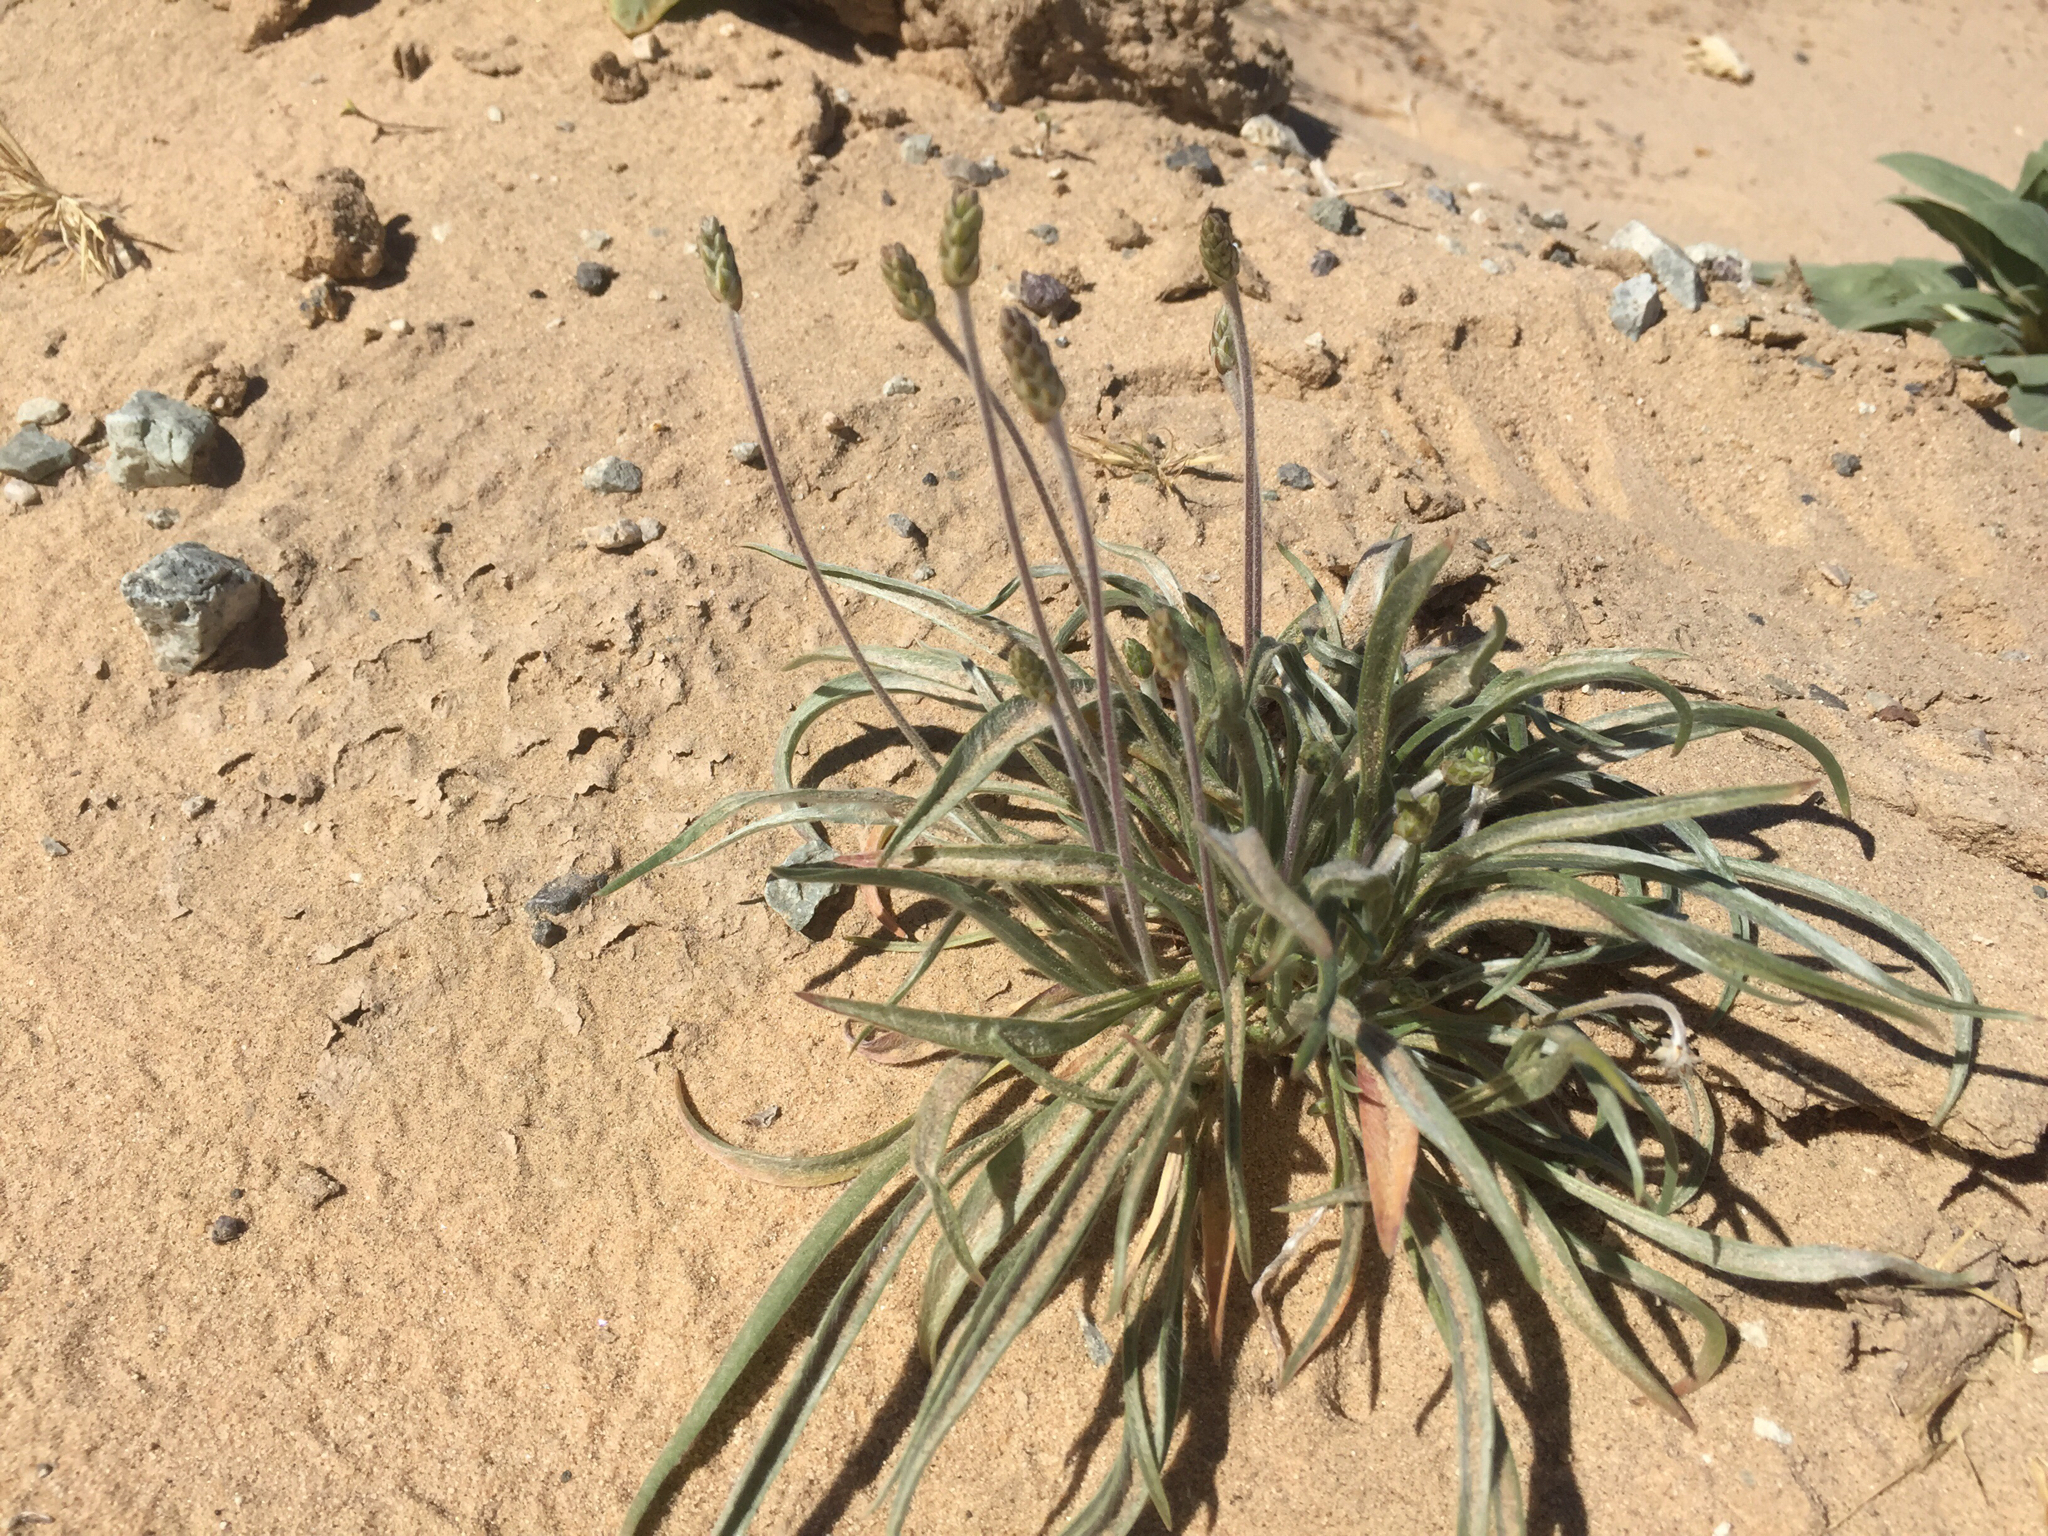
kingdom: Plantae
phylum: Tracheophyta
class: Magnoliopsida
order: Lamiales
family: Plantaginaceae
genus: Plantago
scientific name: Plantago ovata
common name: Blond plantain
